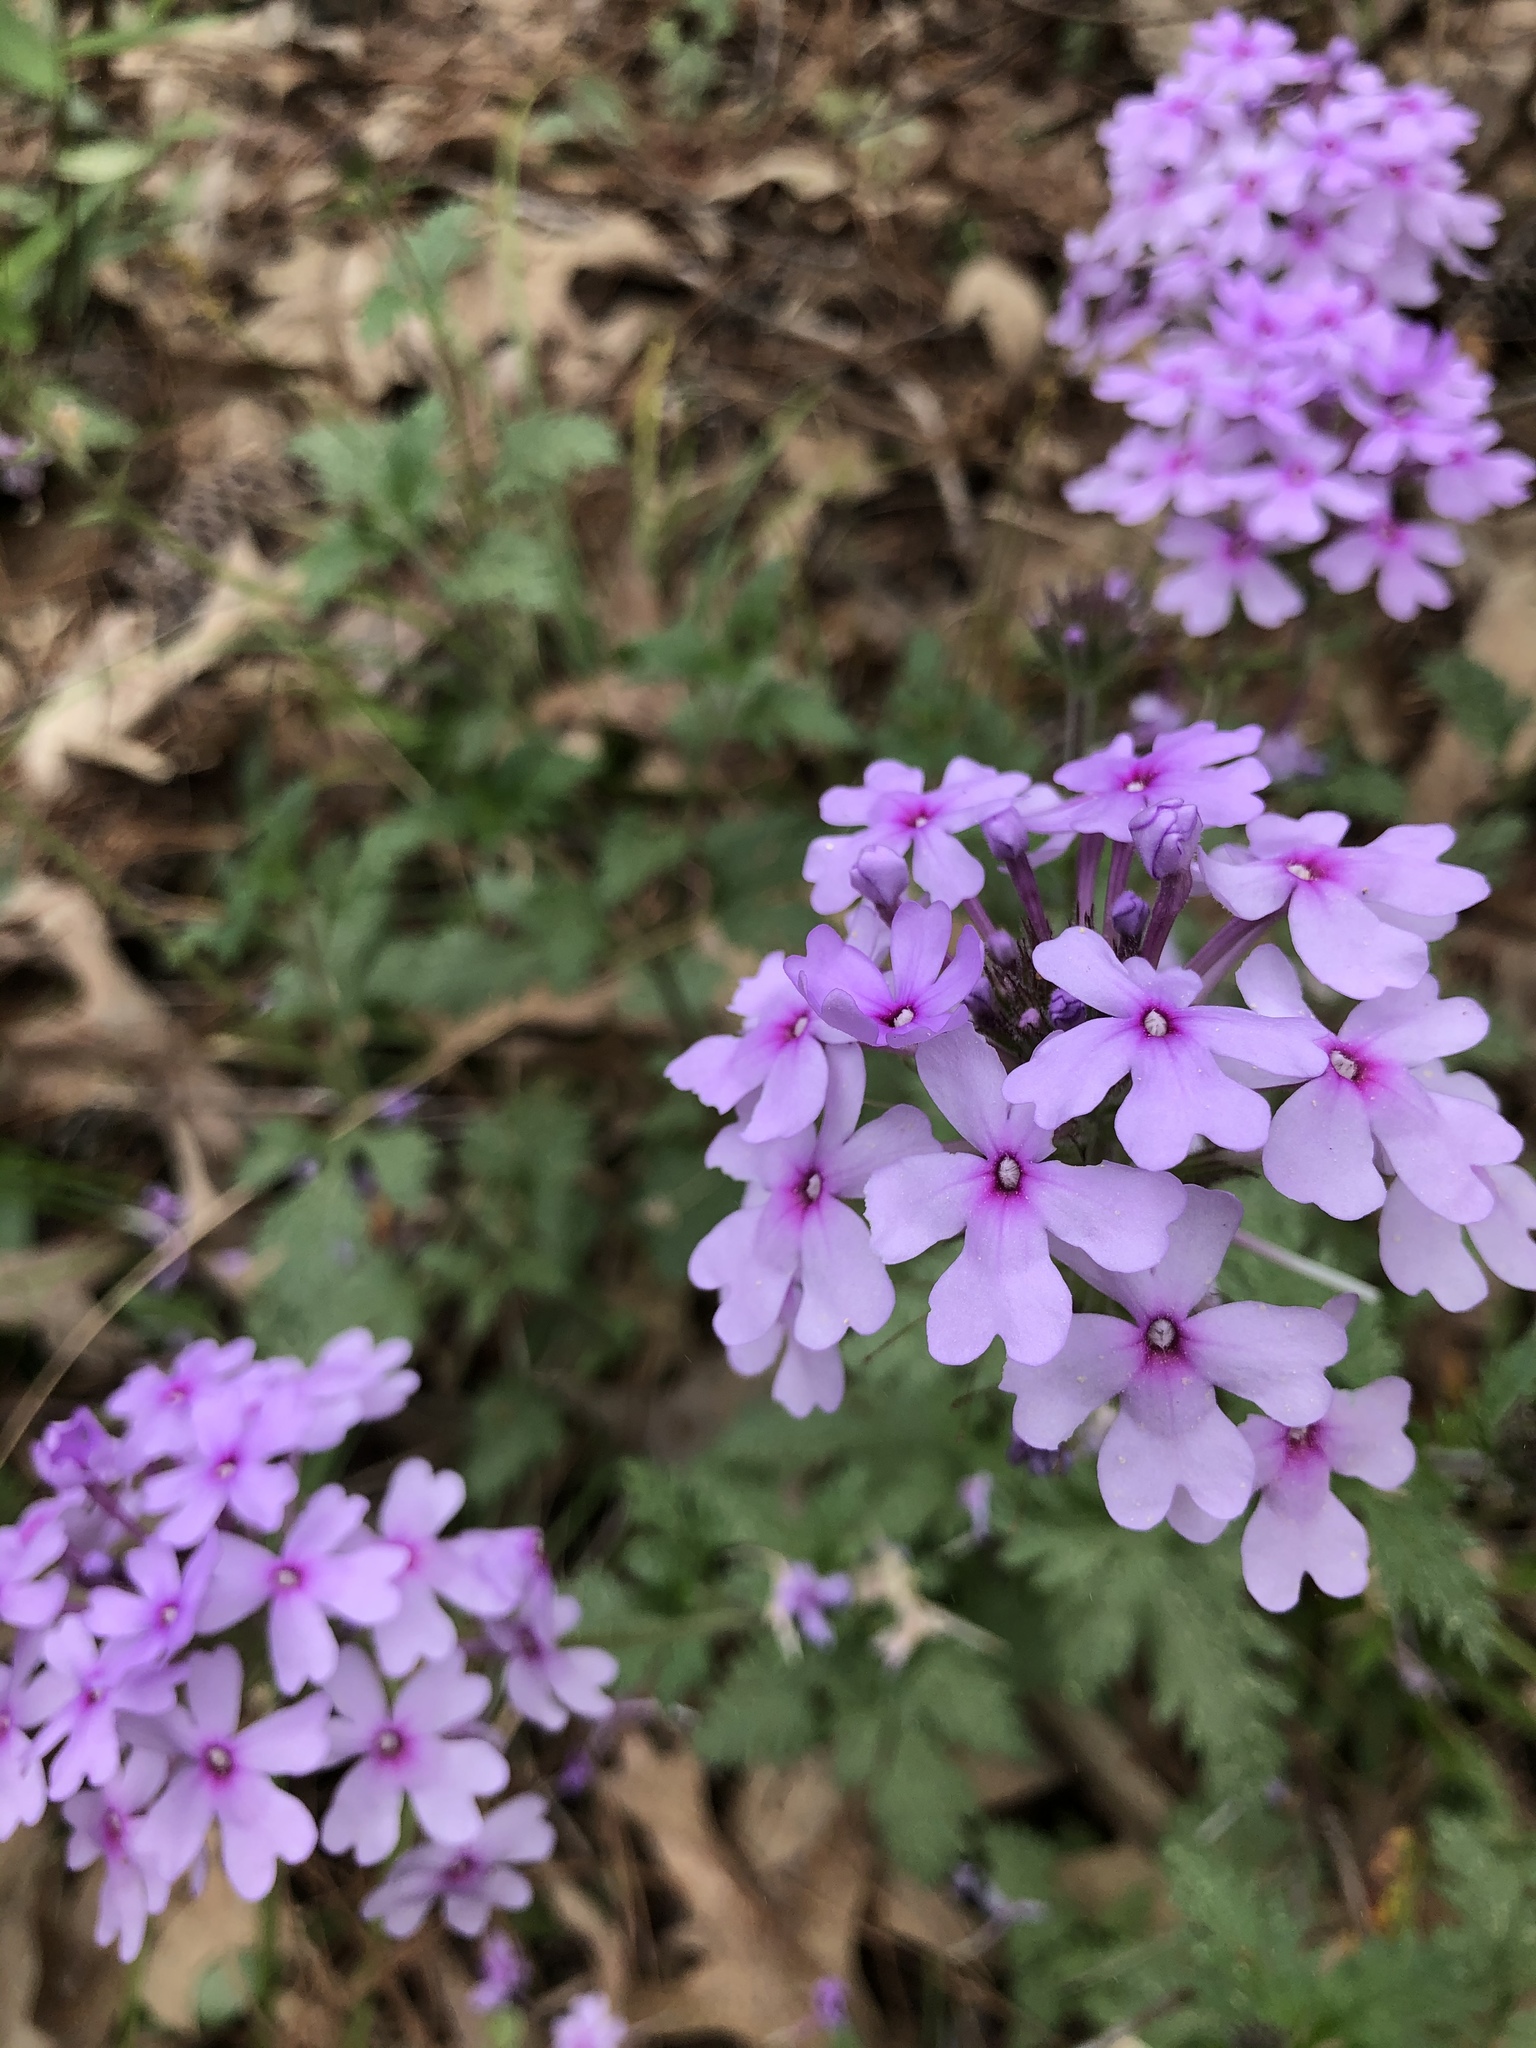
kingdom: Plantae
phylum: Tracheophyta
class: Magnoliopsida
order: Lamiales
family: Verbenaceae
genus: Verbena
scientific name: Verbena canadensis
